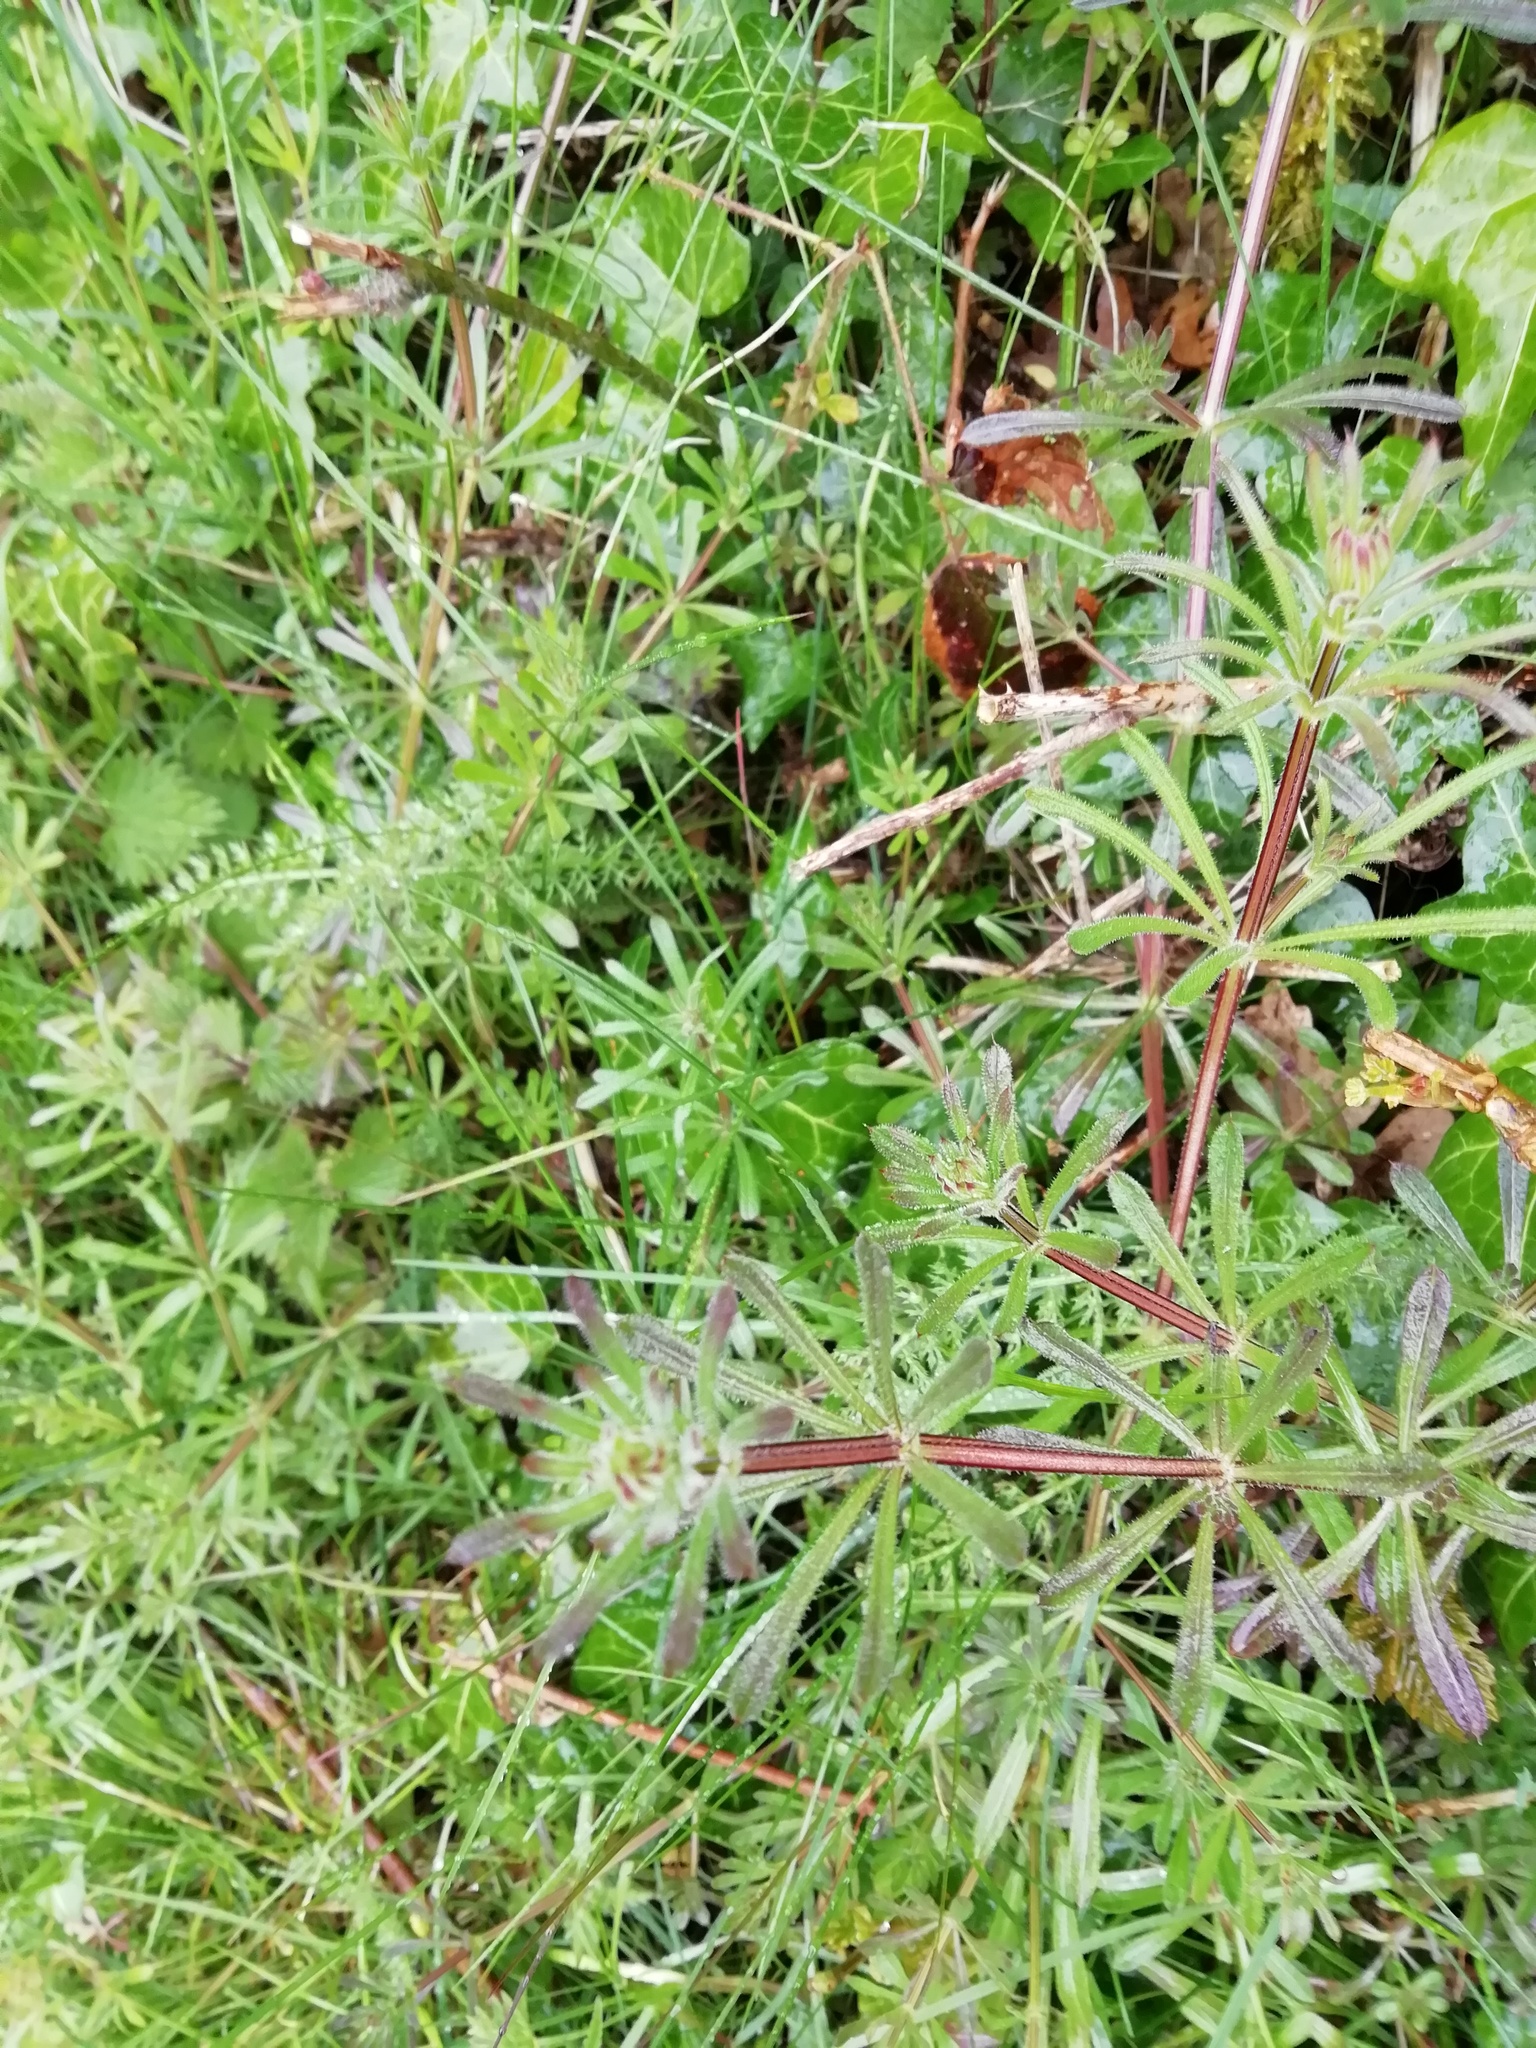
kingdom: Plantae
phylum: Tracheophyta
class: Magnoliopsida
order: Gentianales
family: Rubiaceae
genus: Galium
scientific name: Galium aparine
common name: Cleavers
